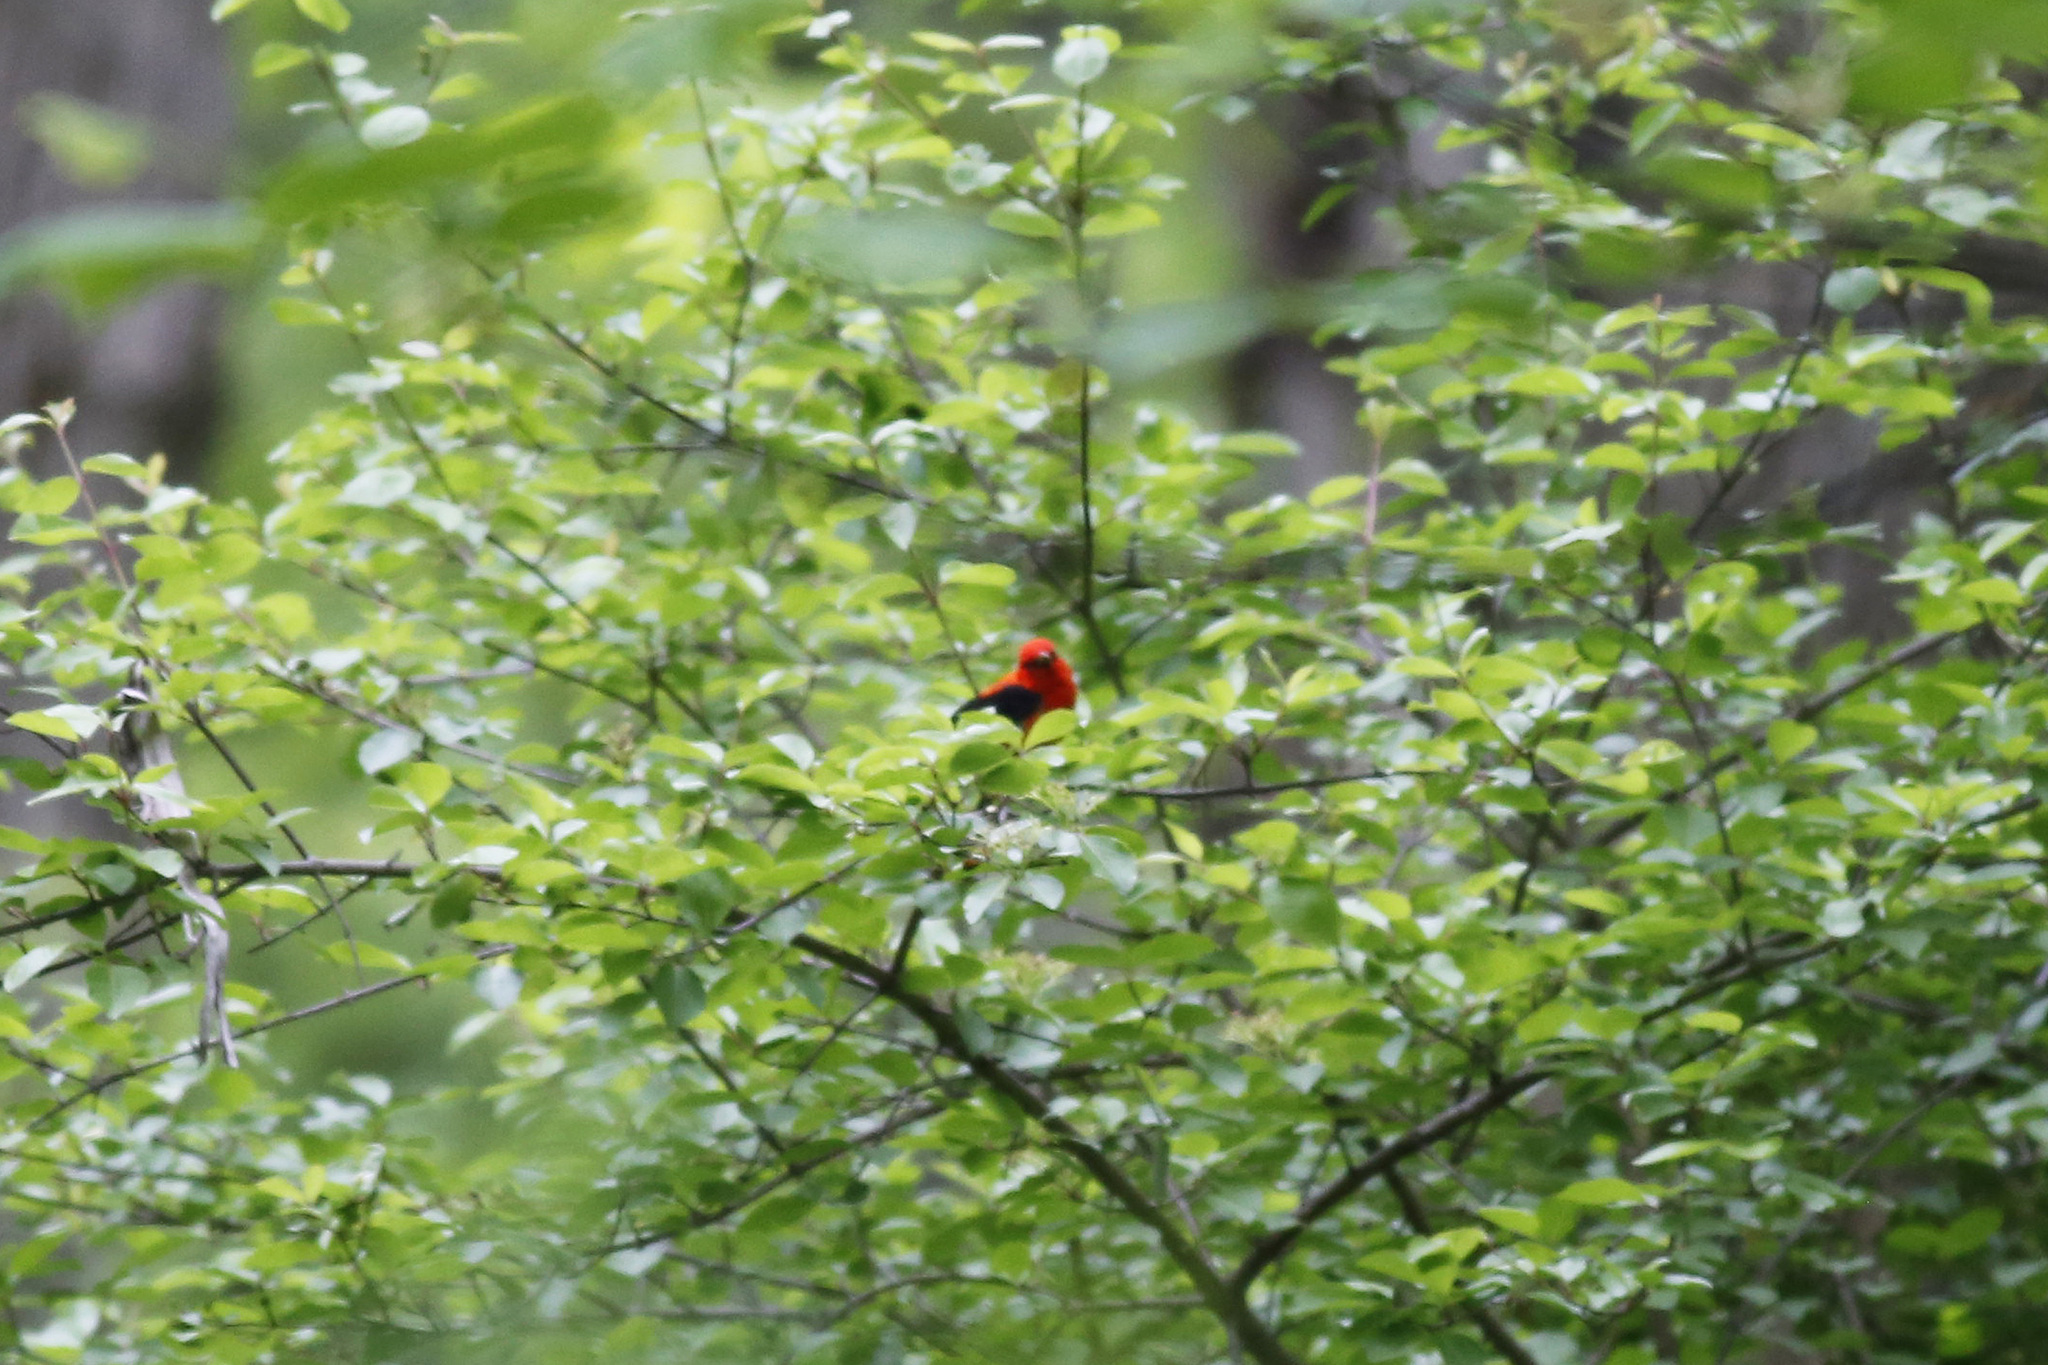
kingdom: Animalia
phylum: Chordata
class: Aves
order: Passeriformes
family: Cardinalidae
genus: Piranga
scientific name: Piranga olivacea
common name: Scarlet tanager
